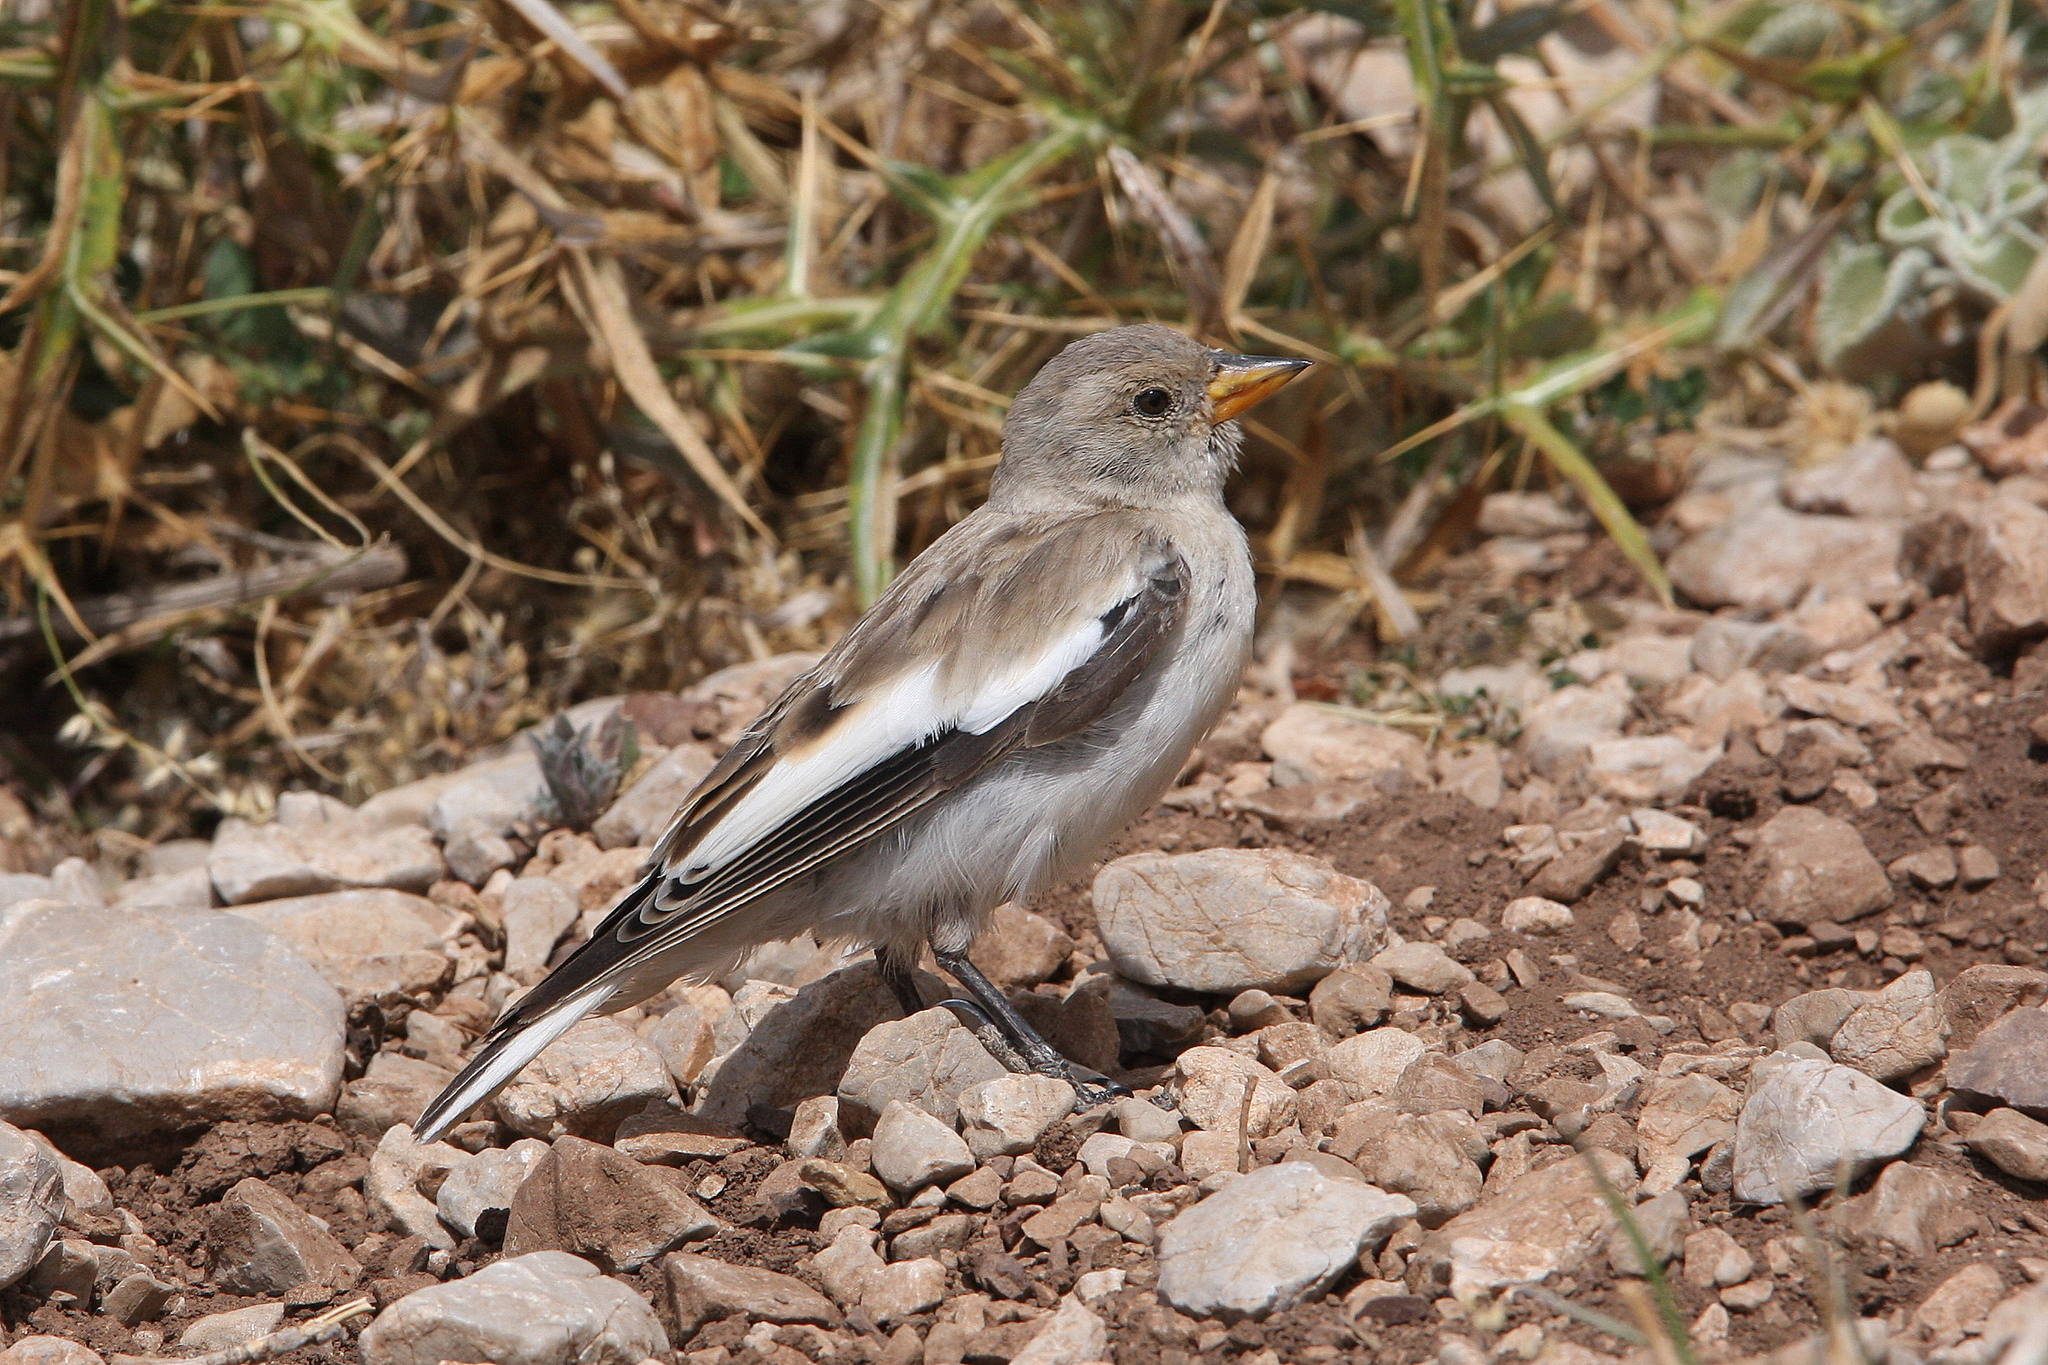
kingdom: Animalia
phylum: Chordata
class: Aves
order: Passeriformes
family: Passeridae
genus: Montifringilla
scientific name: Montifringilla nivalis
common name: White-winged snowfinch
